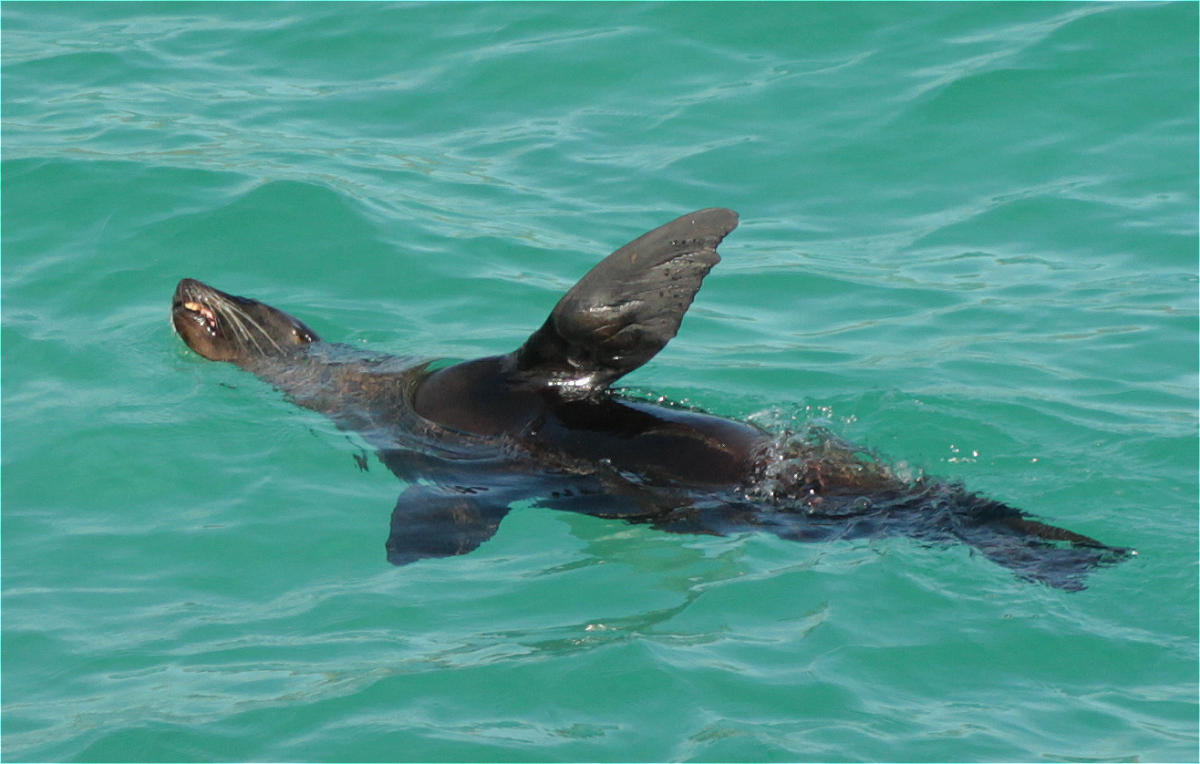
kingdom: Animalia
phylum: Chordata
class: Mammalia
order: Carnivora
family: Otariidae
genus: Zalophus
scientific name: Zalophus wollebaeki
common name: Galapagos sea lion
